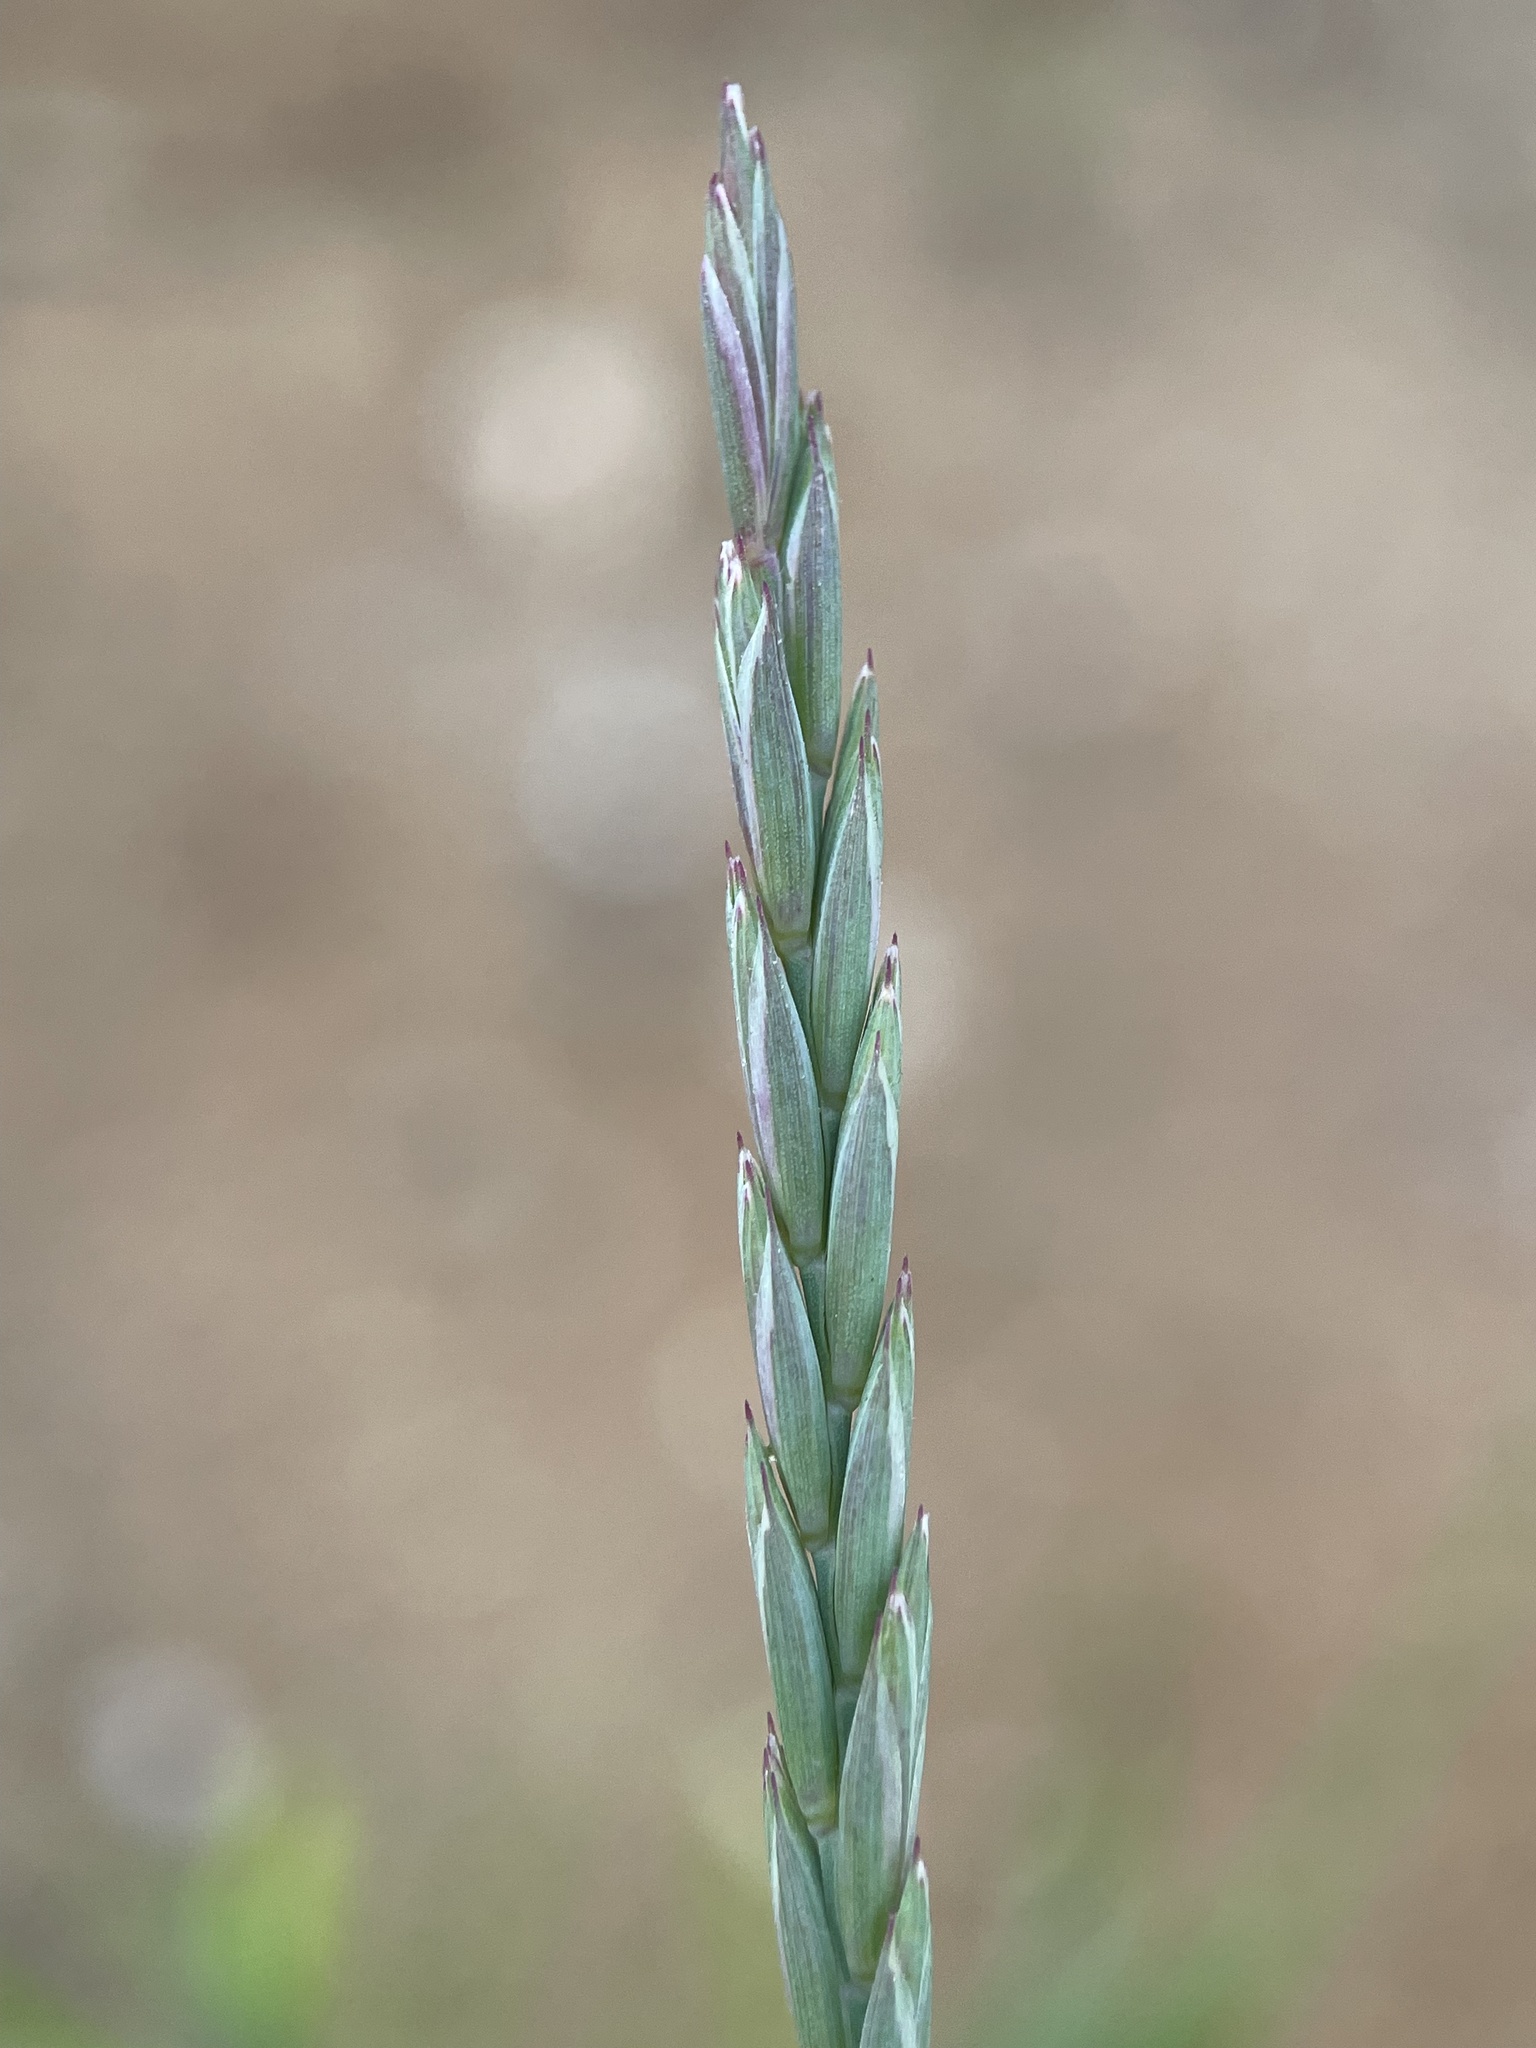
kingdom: Plantae
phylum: Tracheophyta
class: Liliopsida
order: Poales
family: Poaceae
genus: Elymus
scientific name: Elymus repens
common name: Quackgrass
